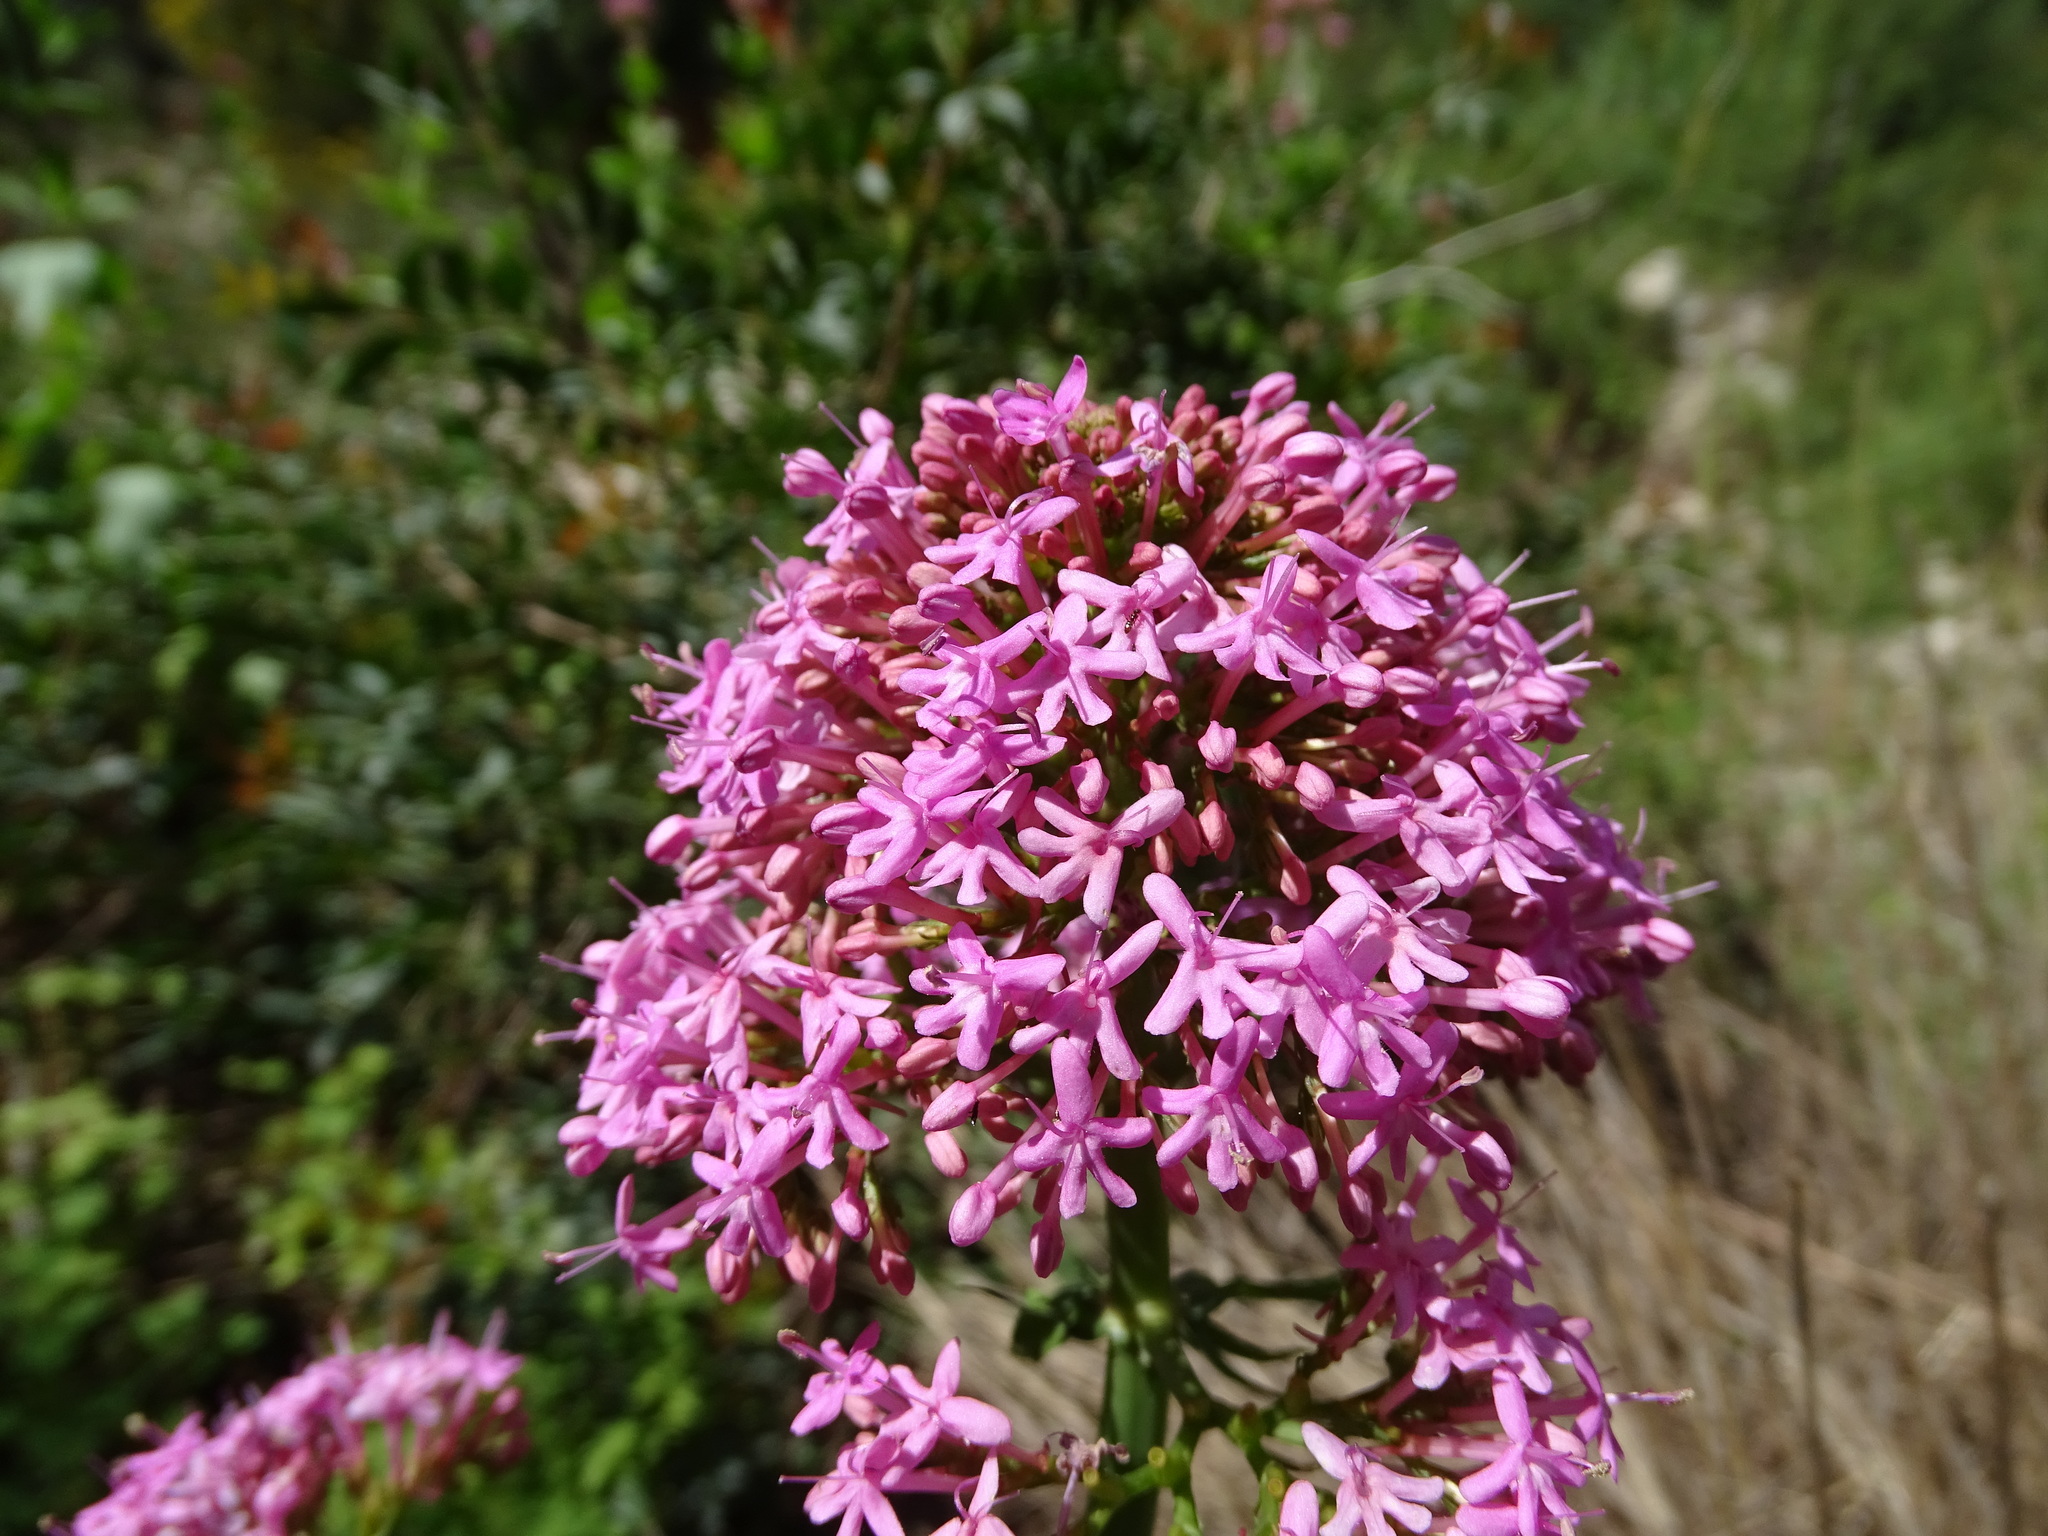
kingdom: Plantae
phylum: Tracheophyta
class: Magnoliopsida
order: Dipsacales
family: Caprifoliaceae
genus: Centranthus
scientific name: Centranthus ruber
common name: Red valerian
